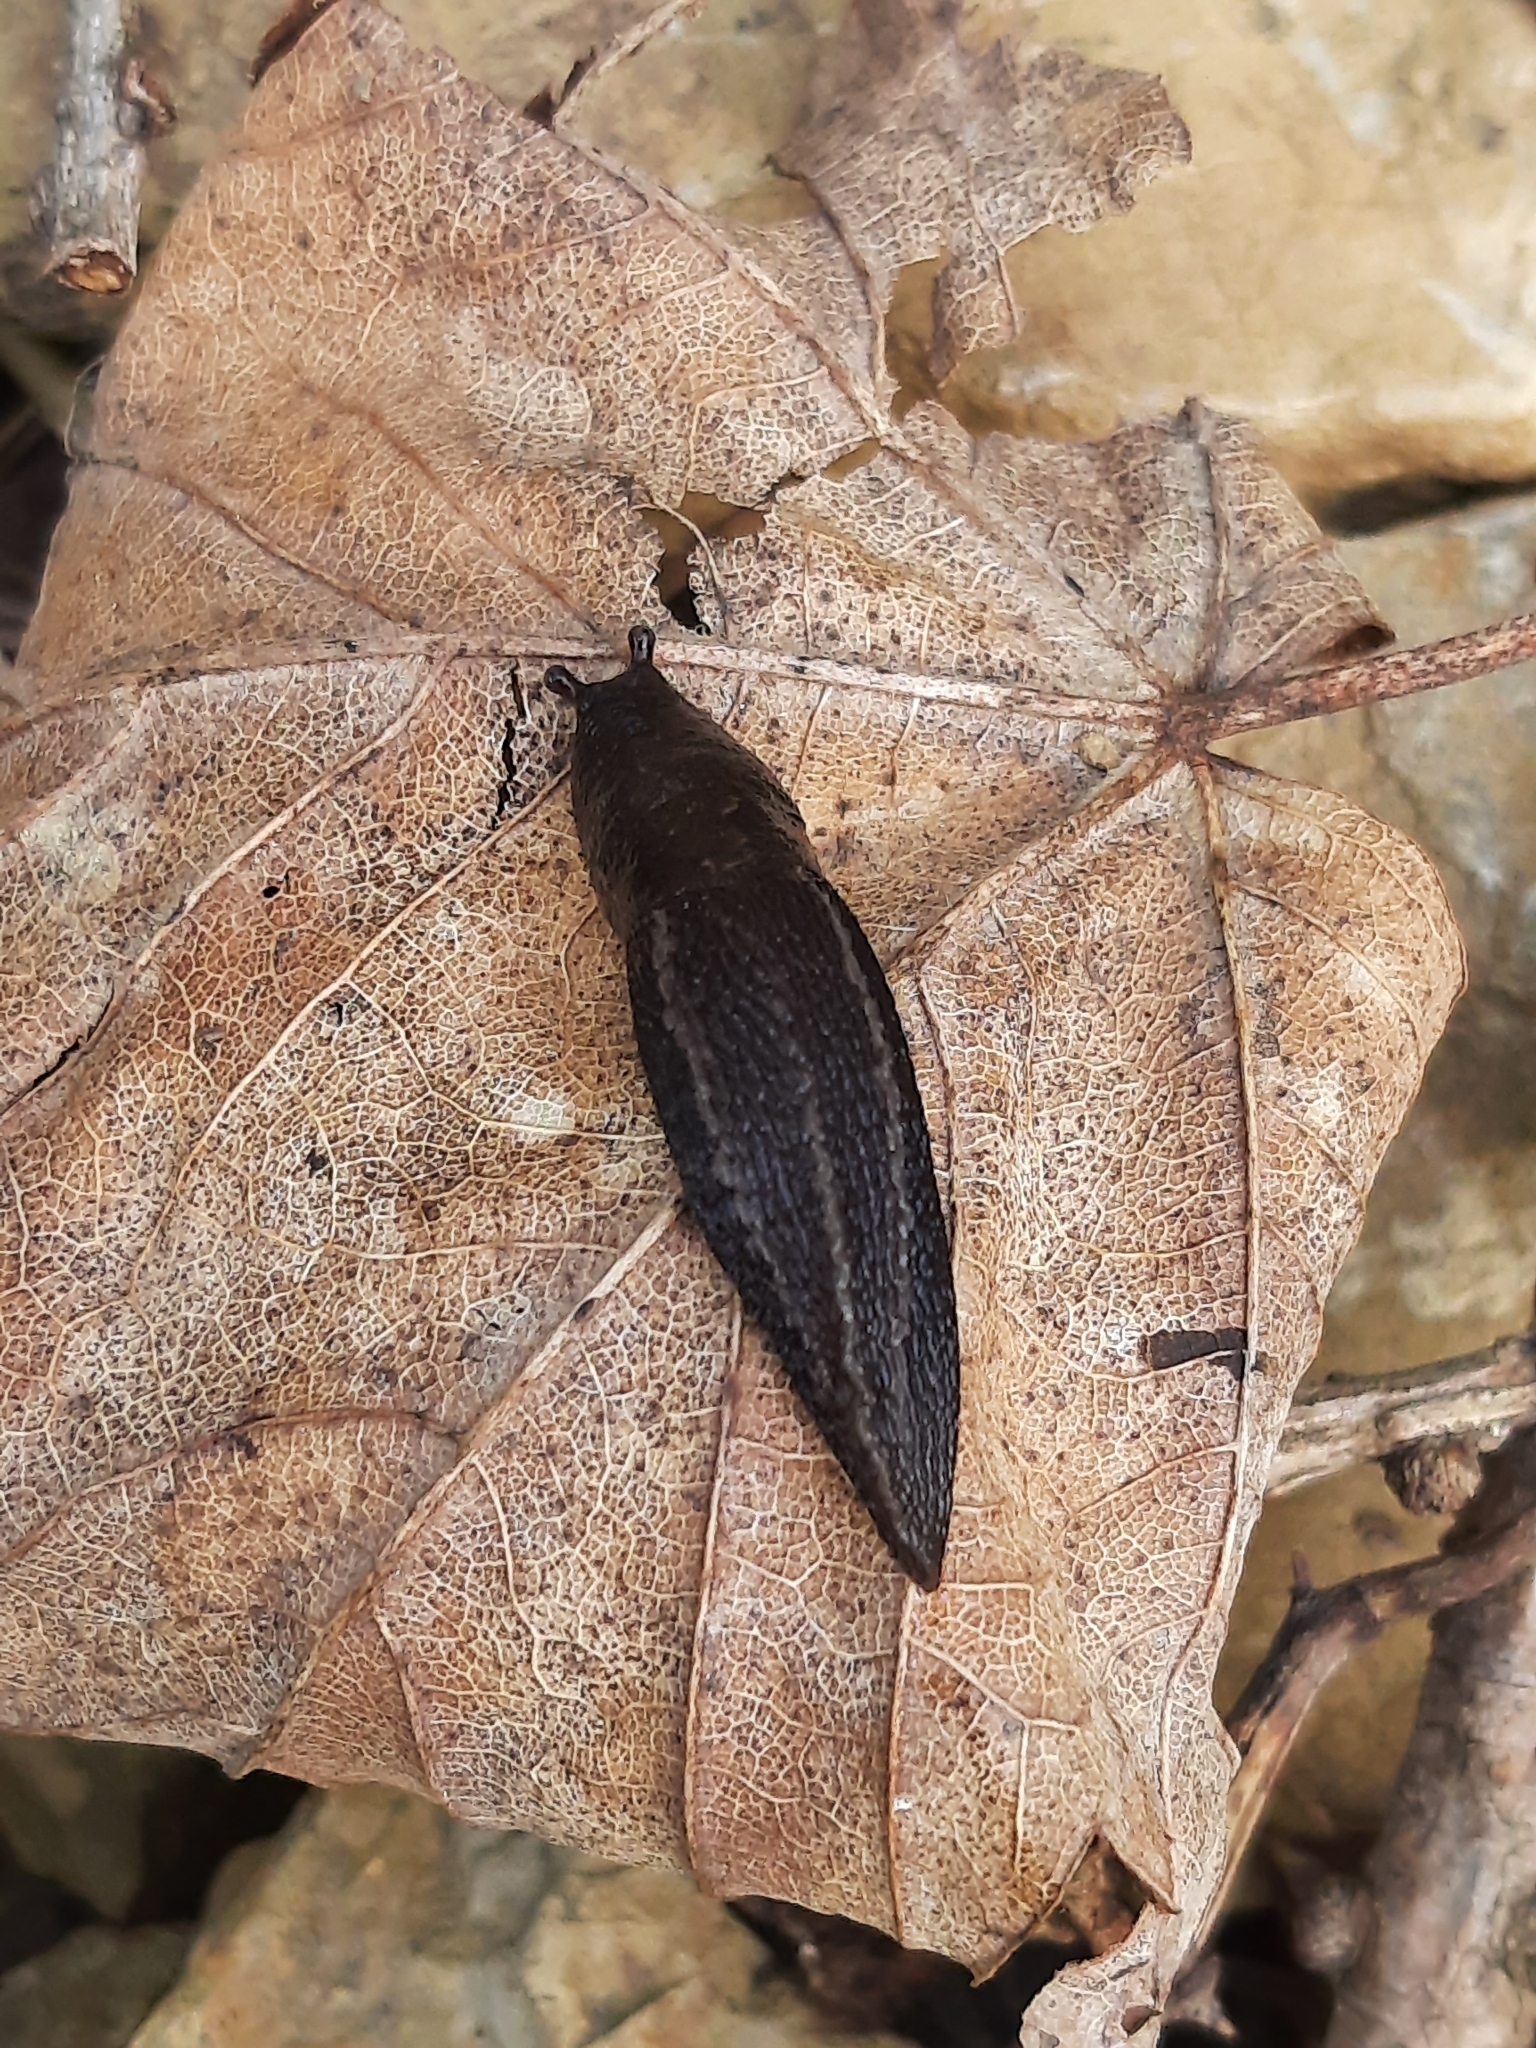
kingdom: Animalia
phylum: Mollusca
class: Gastropoda
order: Stylommatophora
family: Limacidae
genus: Limax
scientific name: Limax maximus
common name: Great grey slug
